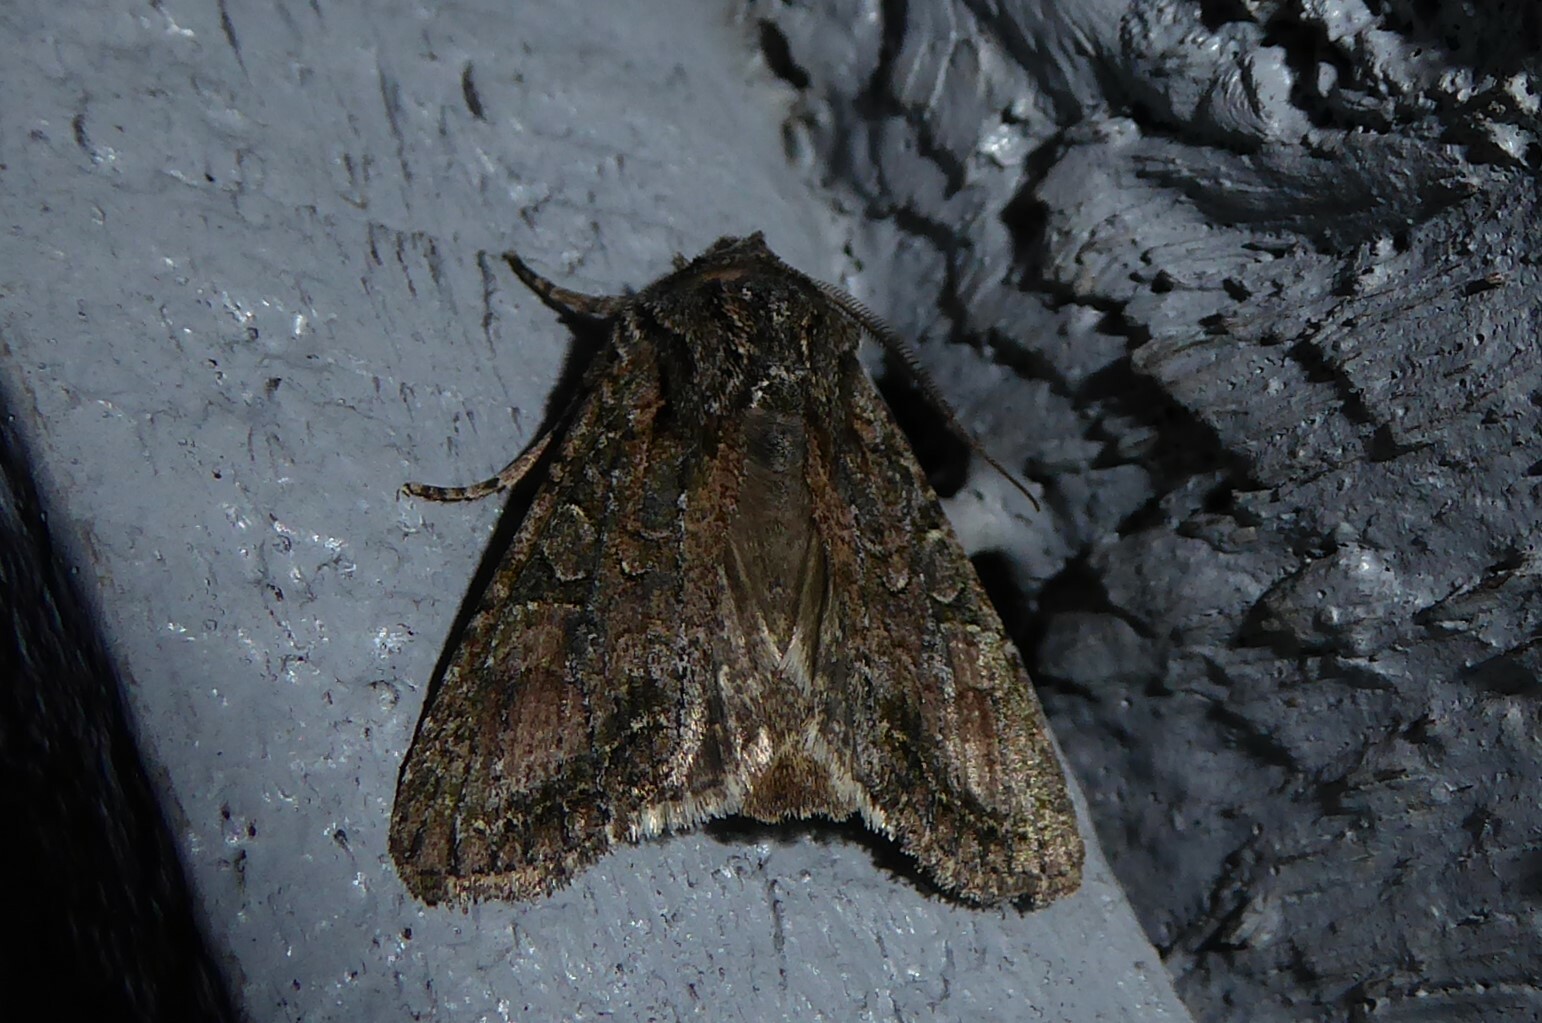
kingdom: Animalia
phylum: Arthropoda
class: Insecta
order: Lepidoptera
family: Noctuidae
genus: Ichneutica
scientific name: Ichneutica mutans
